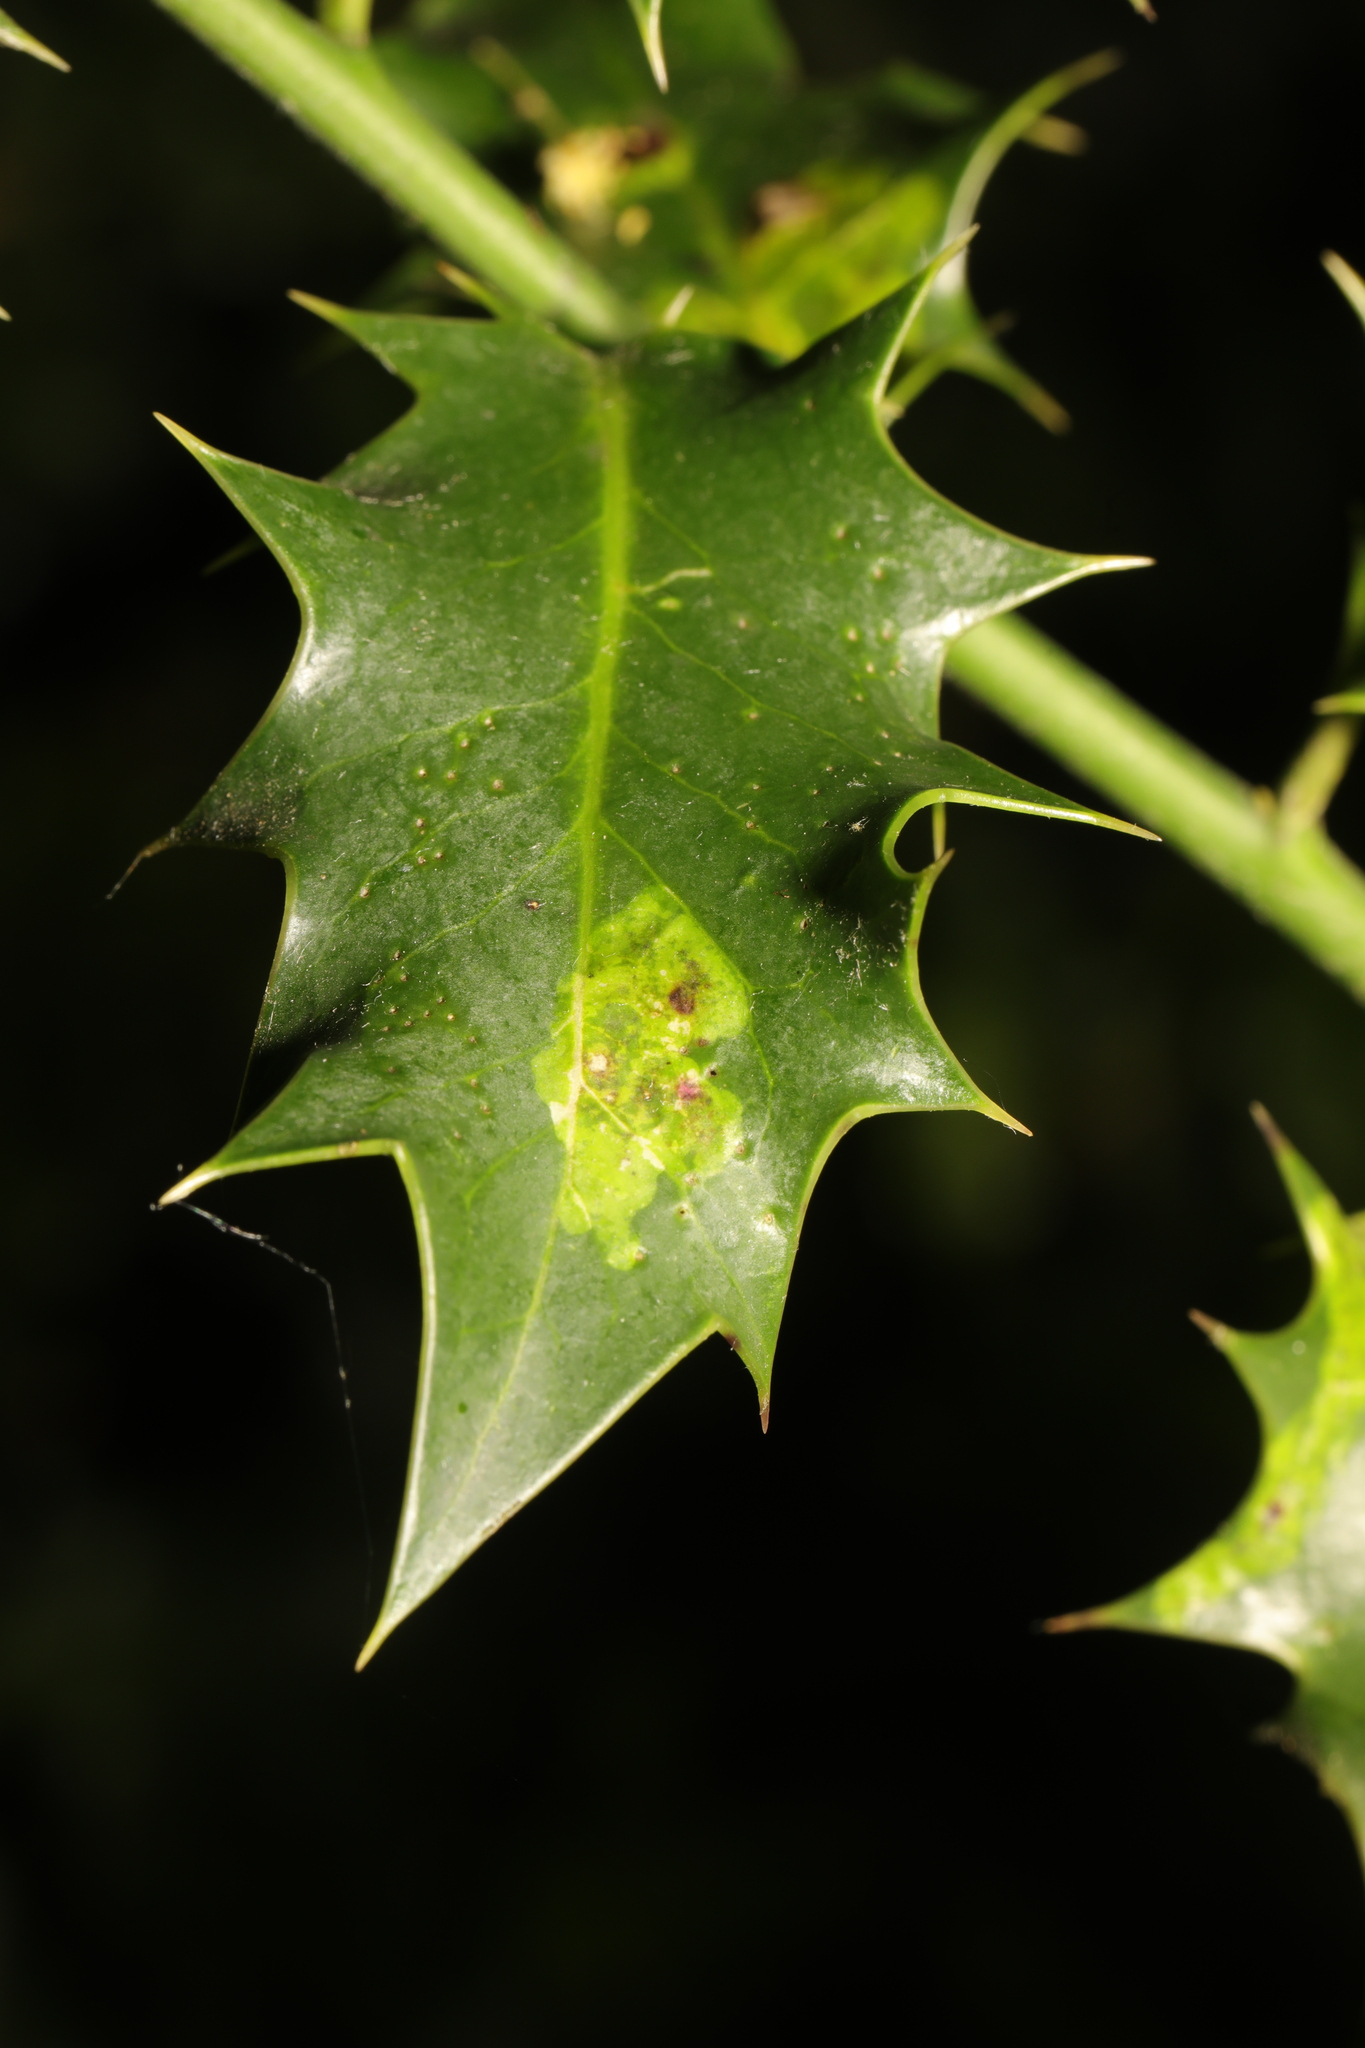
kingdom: Animalia
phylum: Arthropoda
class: Insecta
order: Diptera
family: Agromyzidae
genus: Phytomyza
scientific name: Phytomyza ilicis
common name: Holly leafminer
